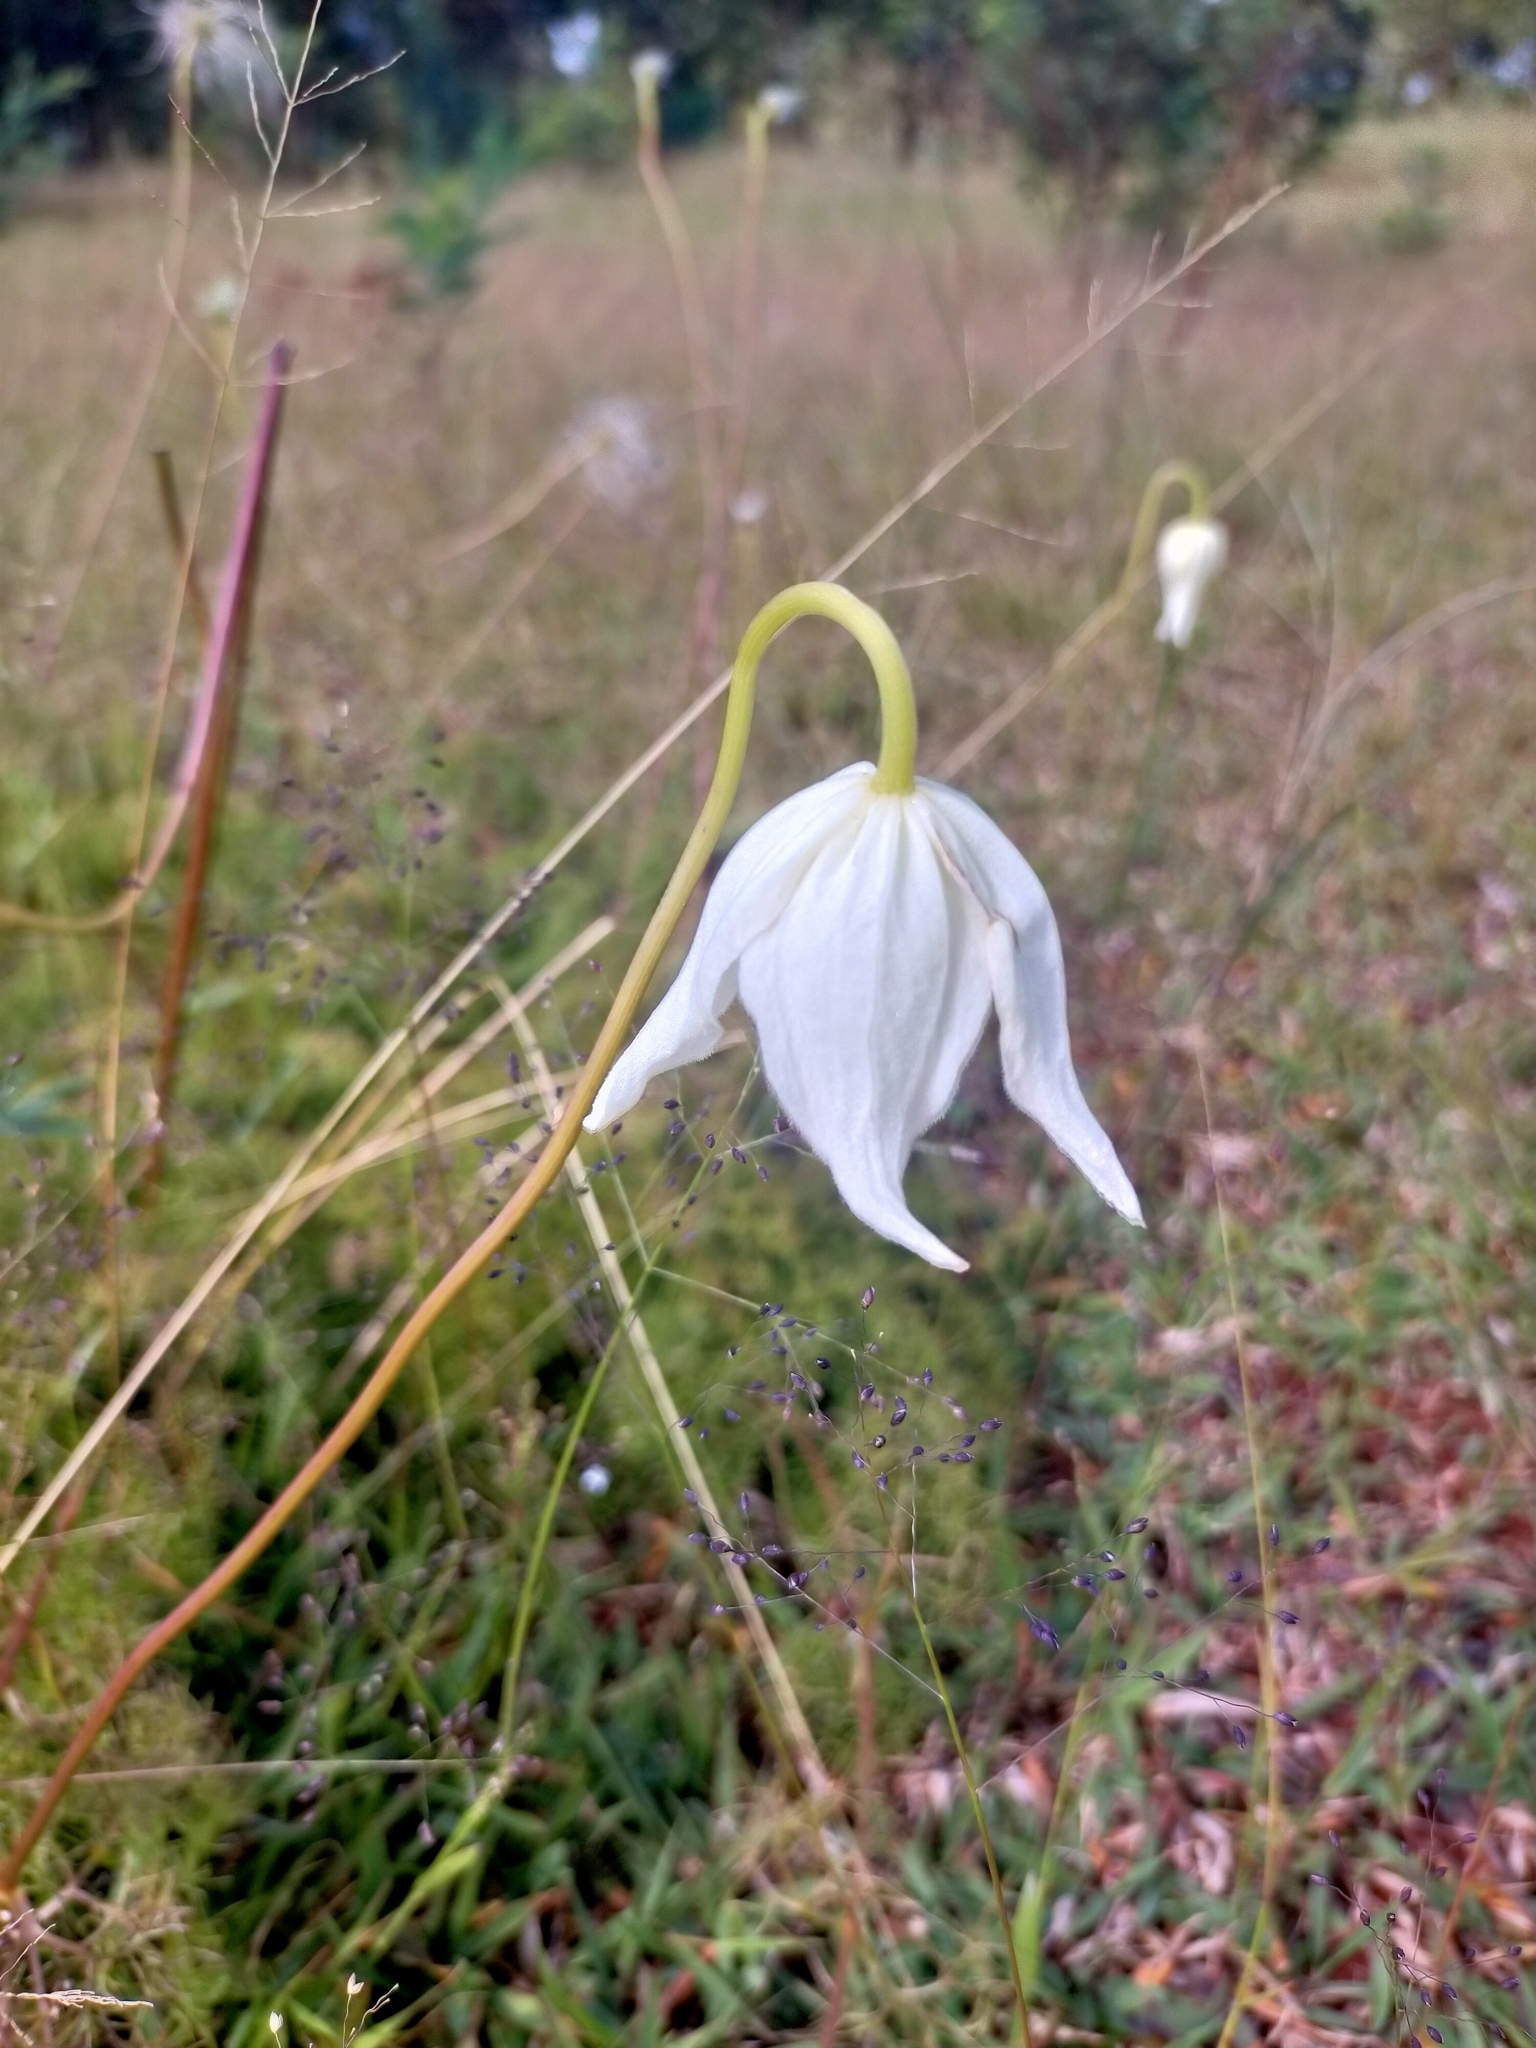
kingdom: Plantae
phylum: Tracheophyta
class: Magnoliopsida
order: Ranunculales
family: Ranunculaceae
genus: Clematis
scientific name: Clematis mauritiana
